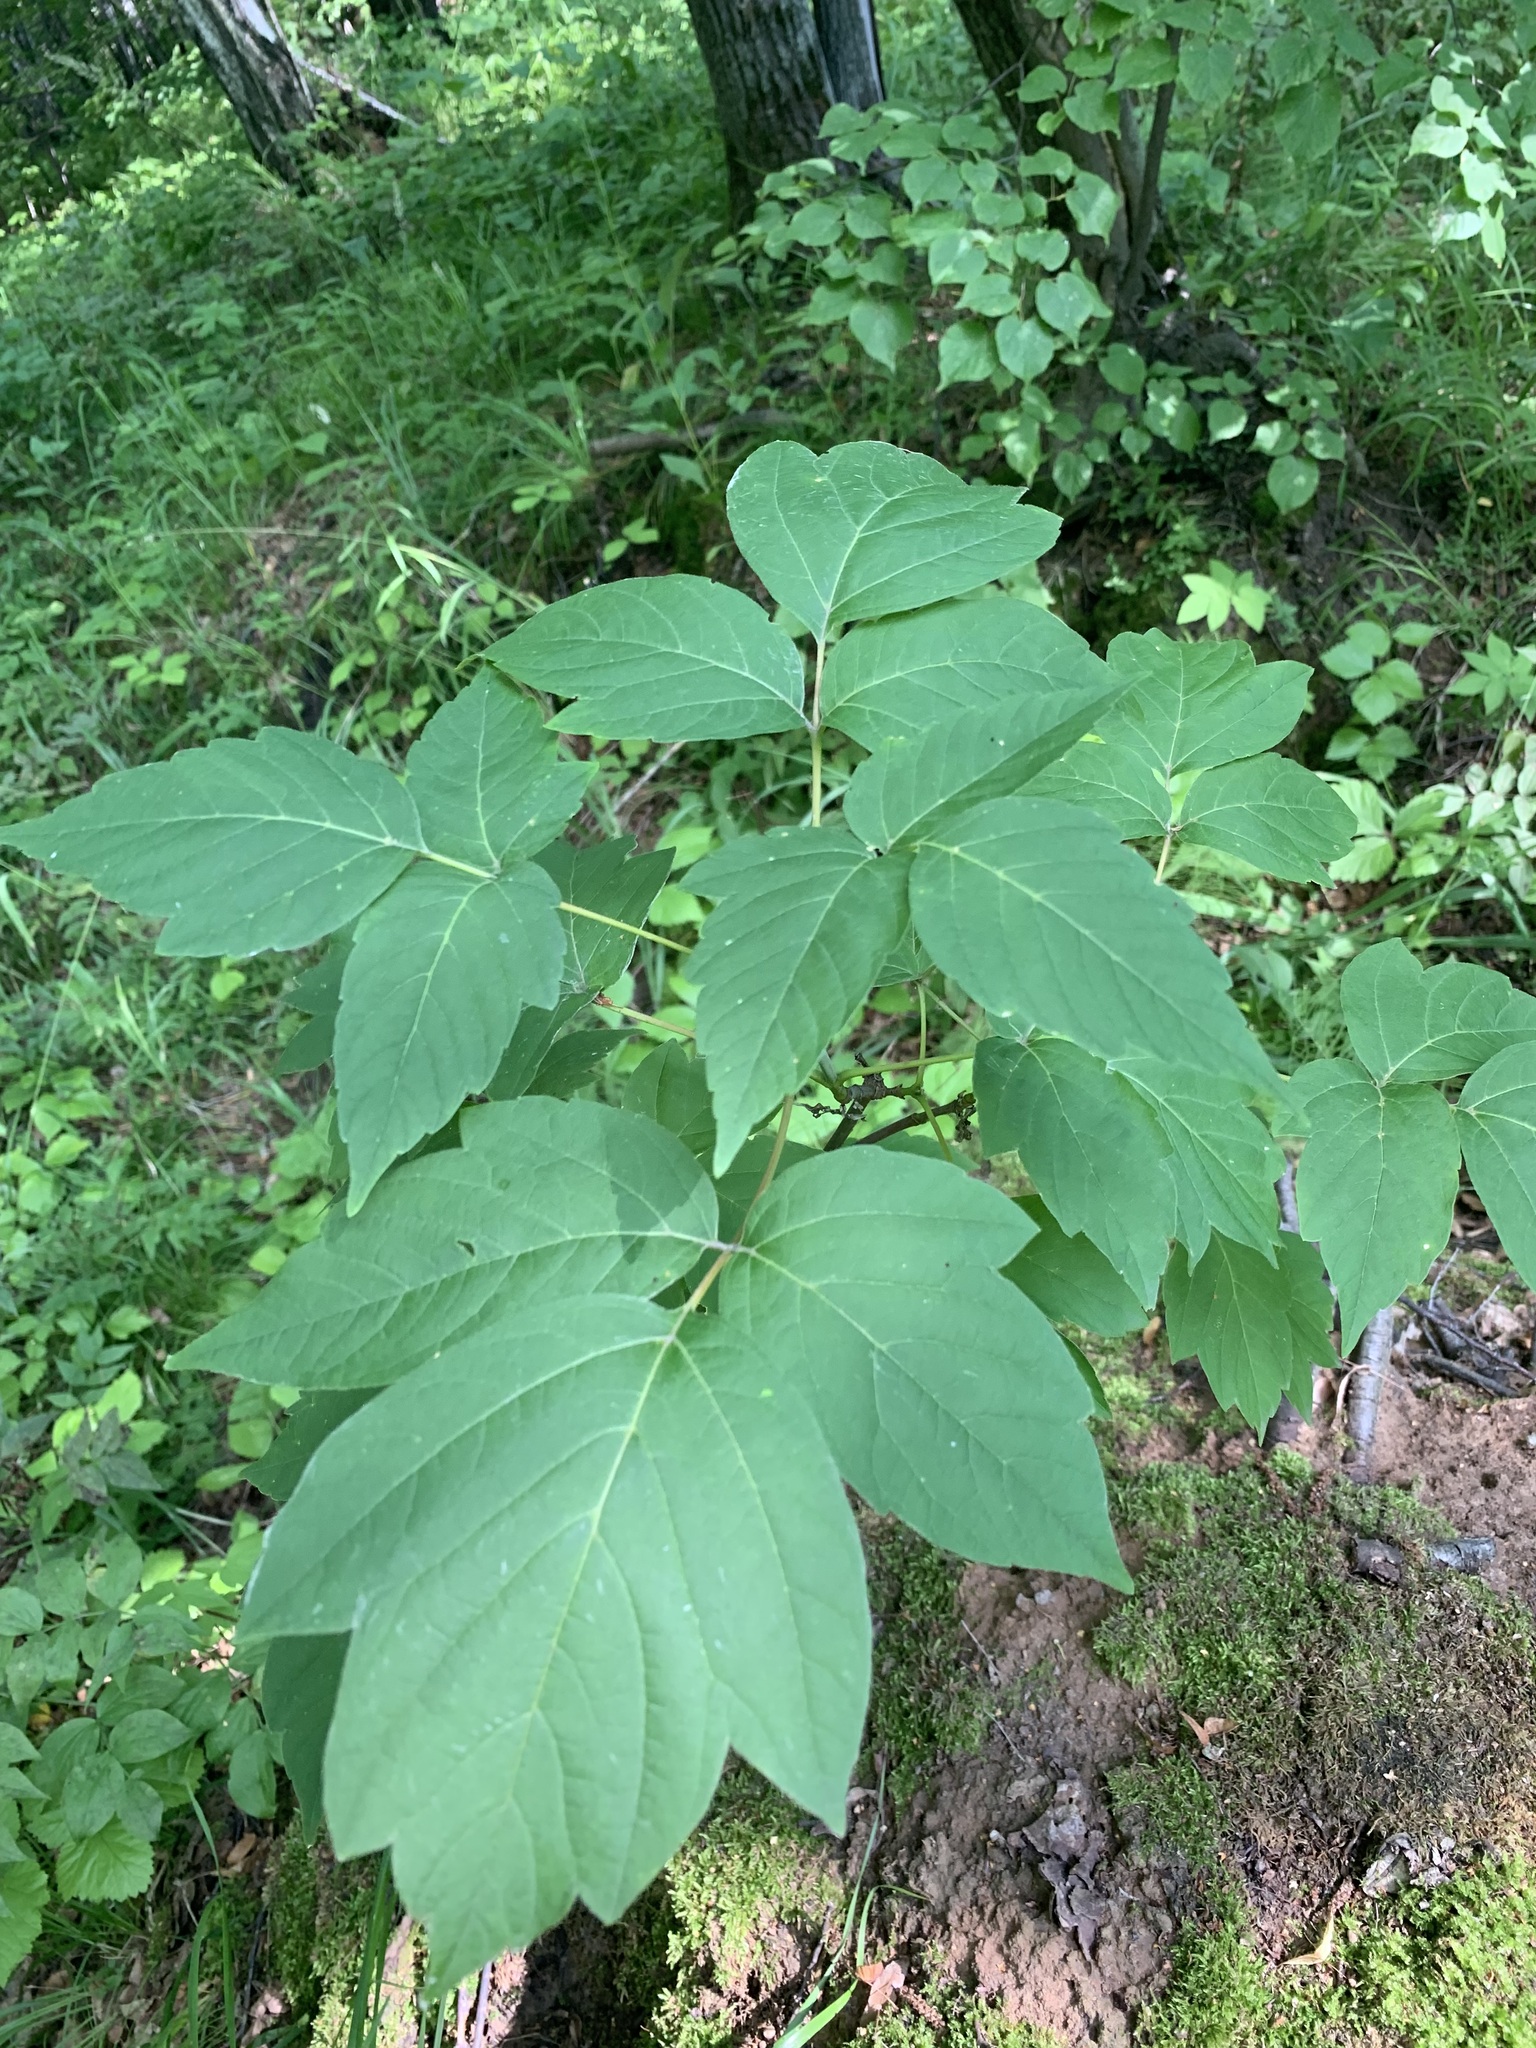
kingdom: Plantae
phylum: Tracheophyta
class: Magnoliopsida
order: Sapindales
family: Sapindaceae
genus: Acer
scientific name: Acer negundo
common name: Ashleaf maple
